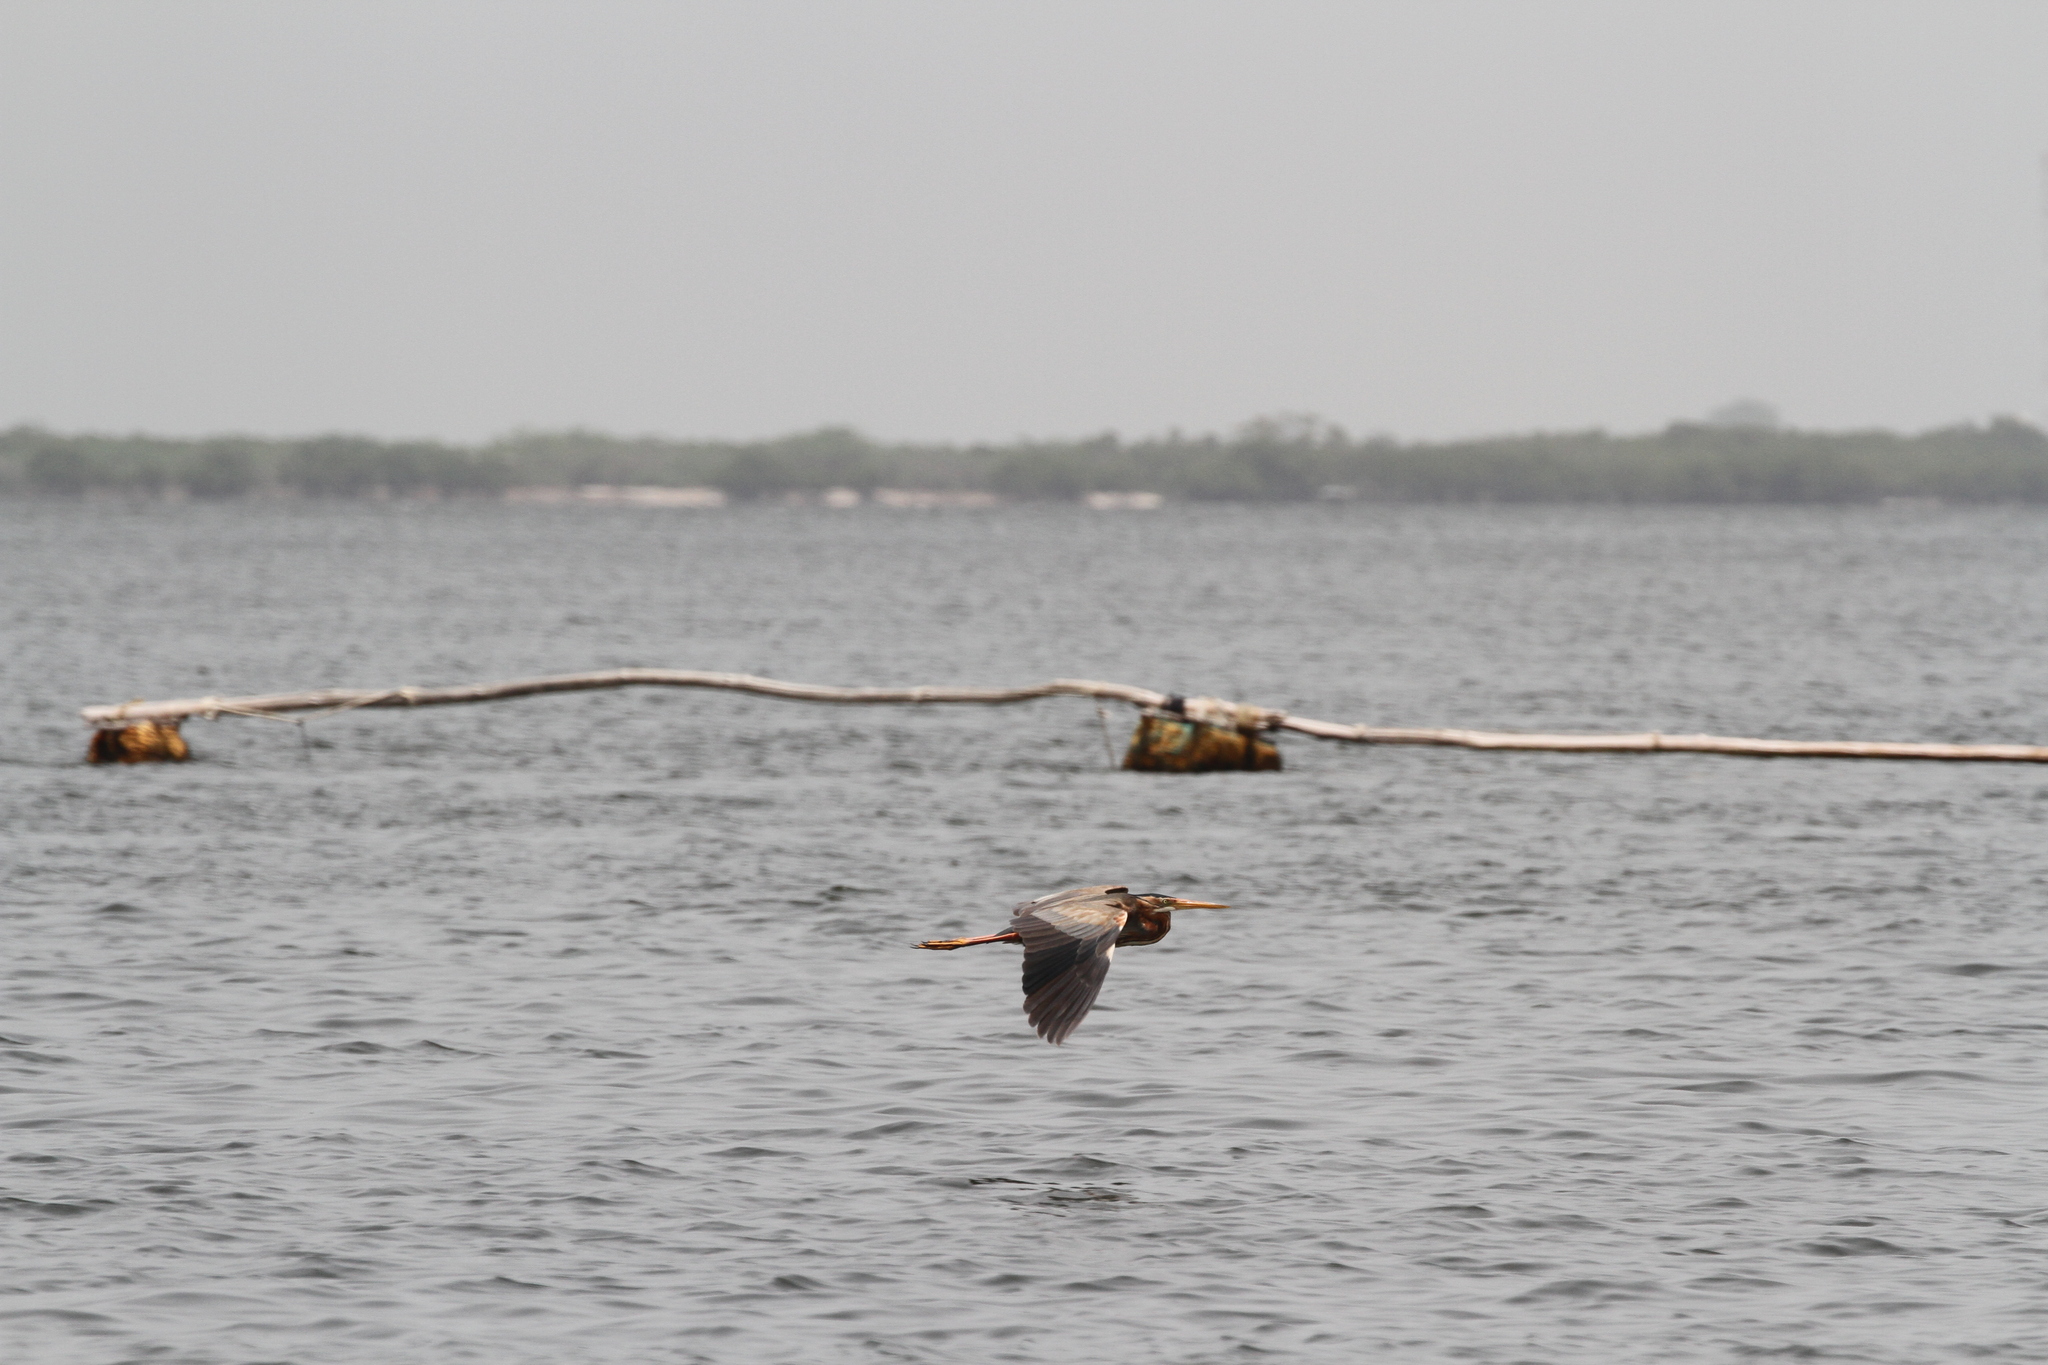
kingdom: Animalia
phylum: Chordata
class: Aves
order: Pelecaniformes
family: Ardeidae
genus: Ardea
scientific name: Ardea purpurea
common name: Purple heron
